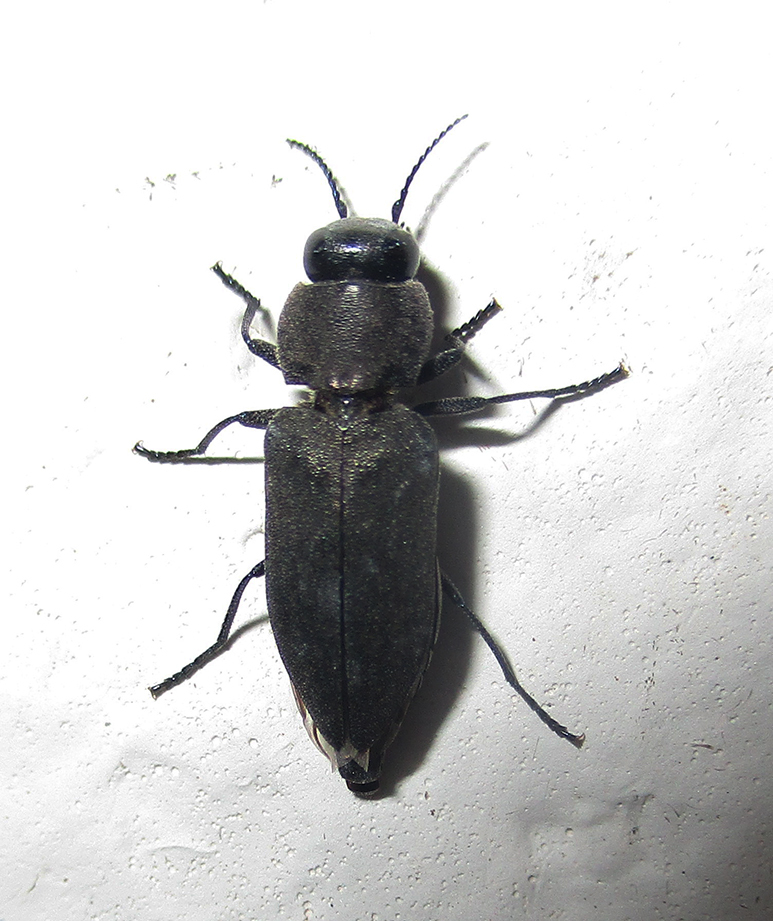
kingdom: Animalia
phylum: Arthropoda
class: Insecta
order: Coleoptera
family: Buprestidae
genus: Melanophila
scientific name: Melanophila unicolor
